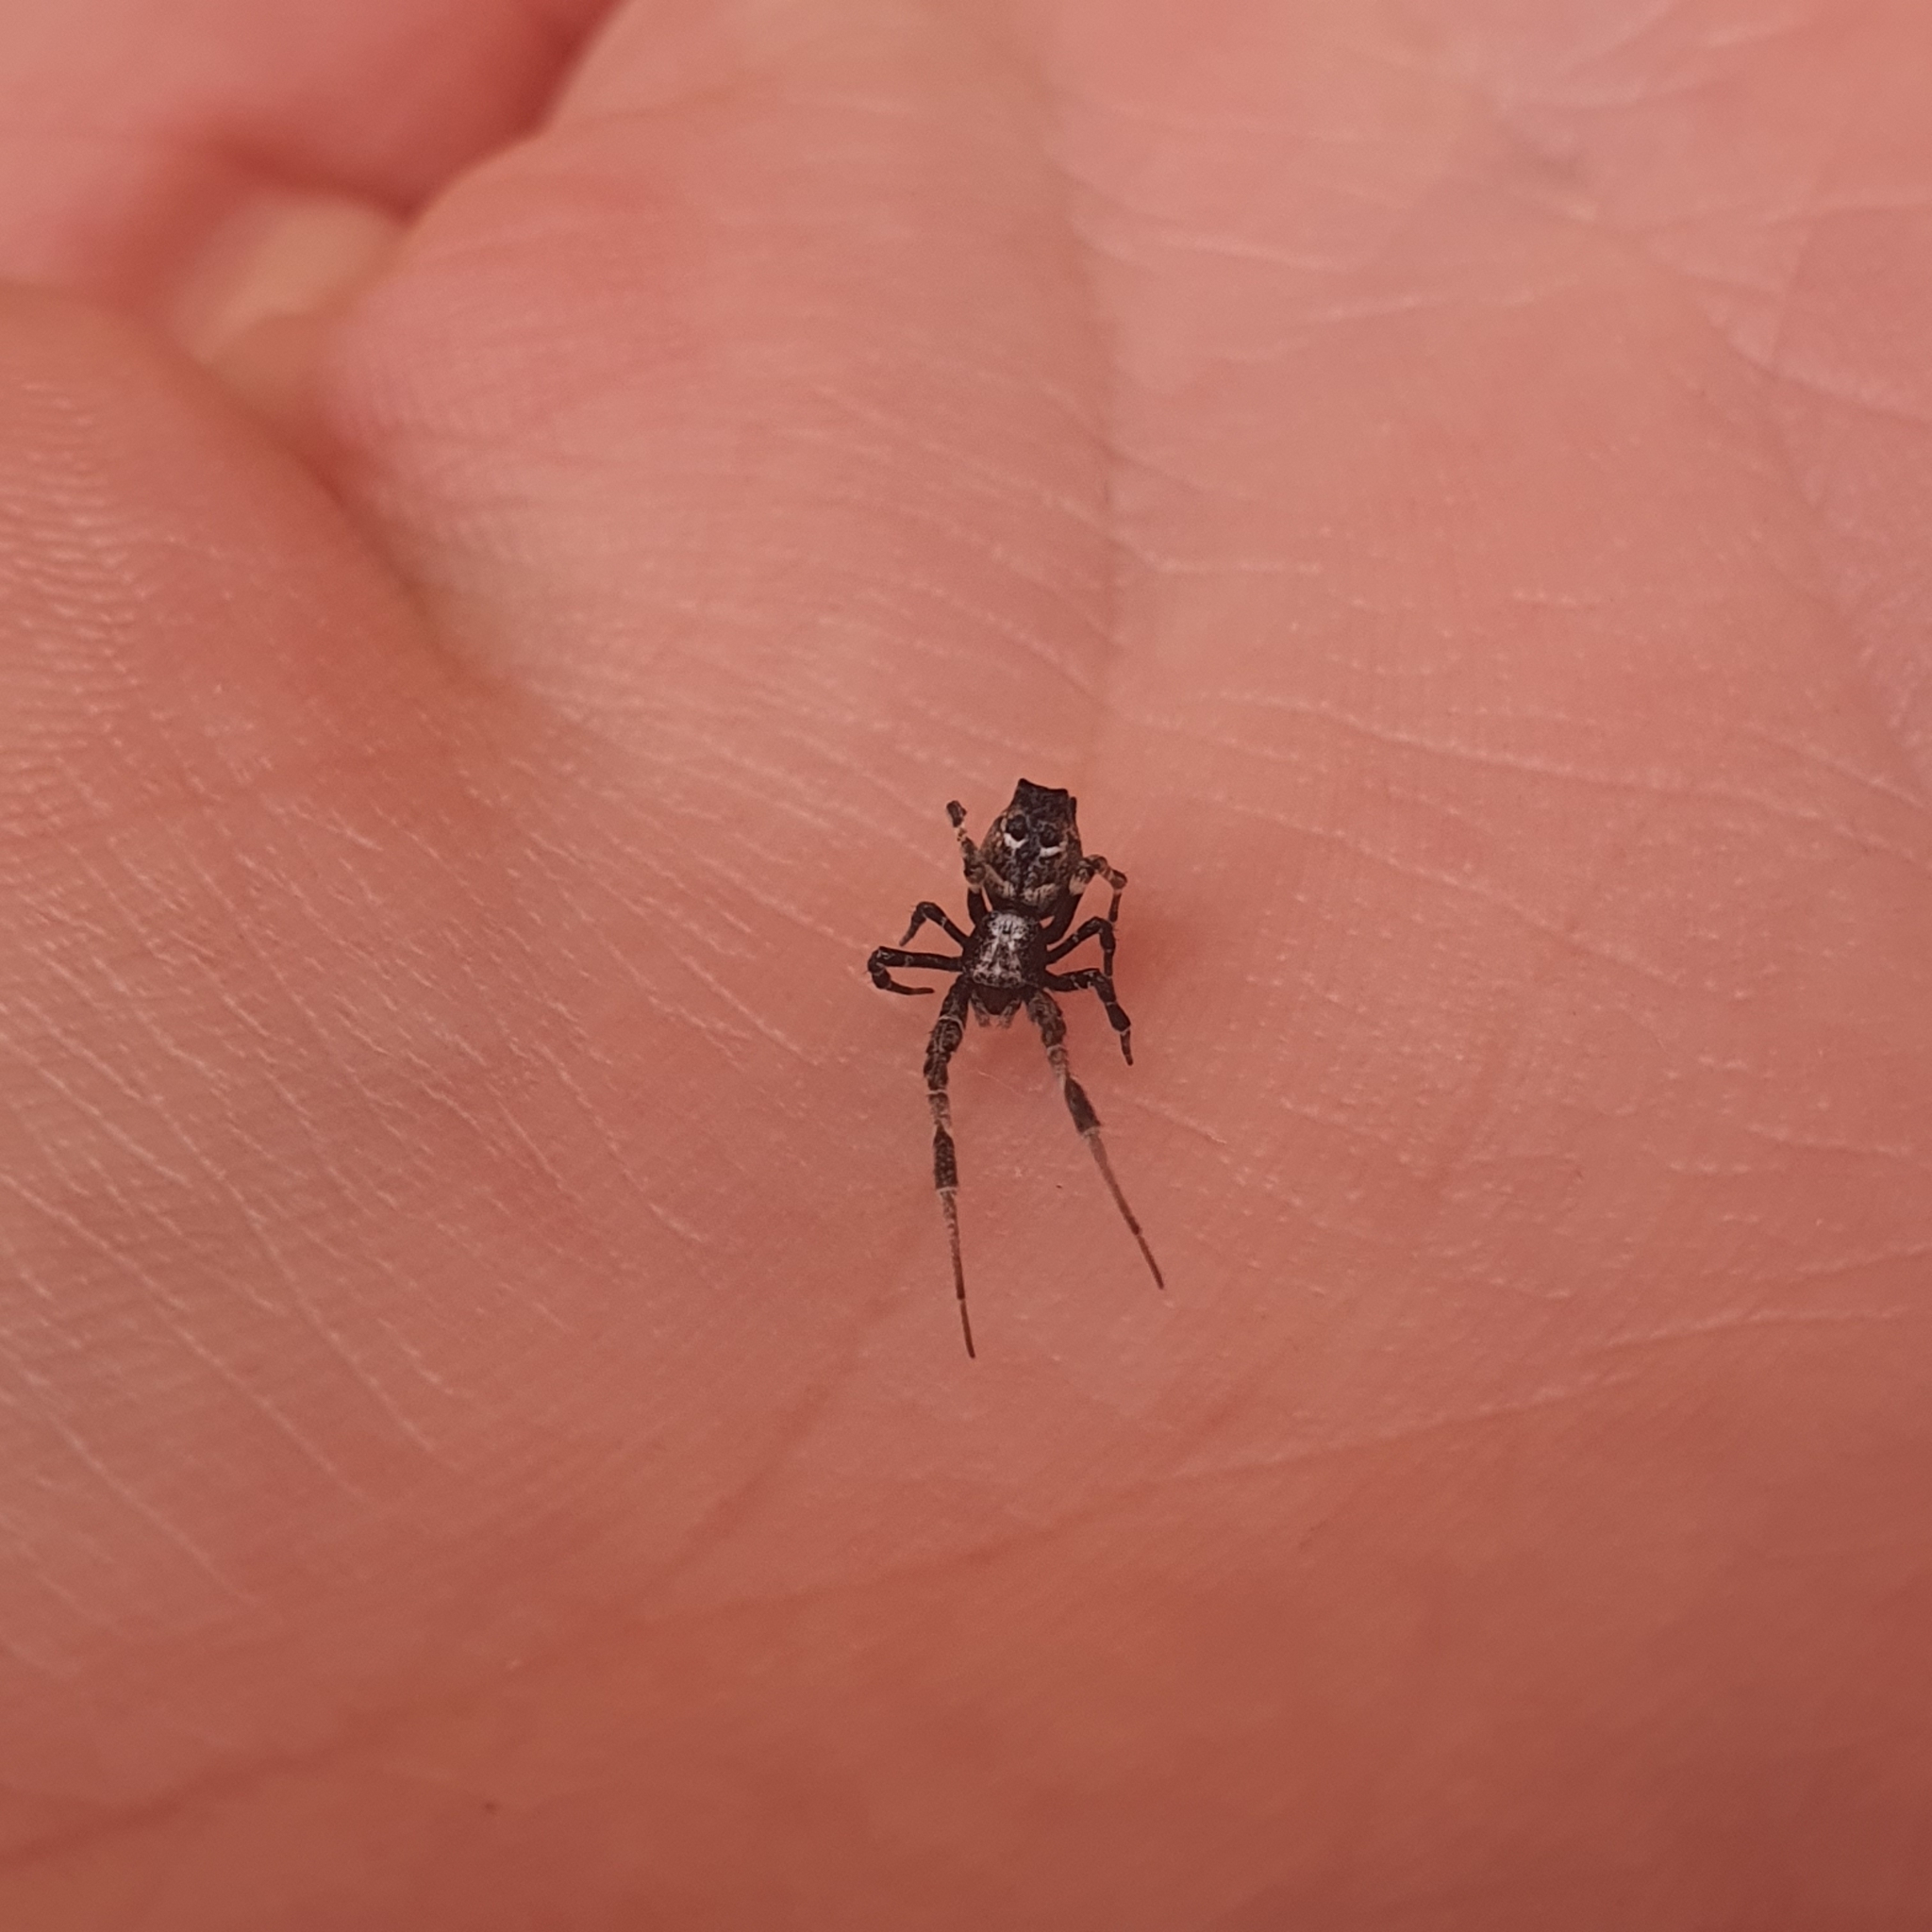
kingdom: Animalia
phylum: Arthropoda
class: Arachnida
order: Araneae
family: Uloboridae
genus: Philoponella
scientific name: Philoponella congregabilis
